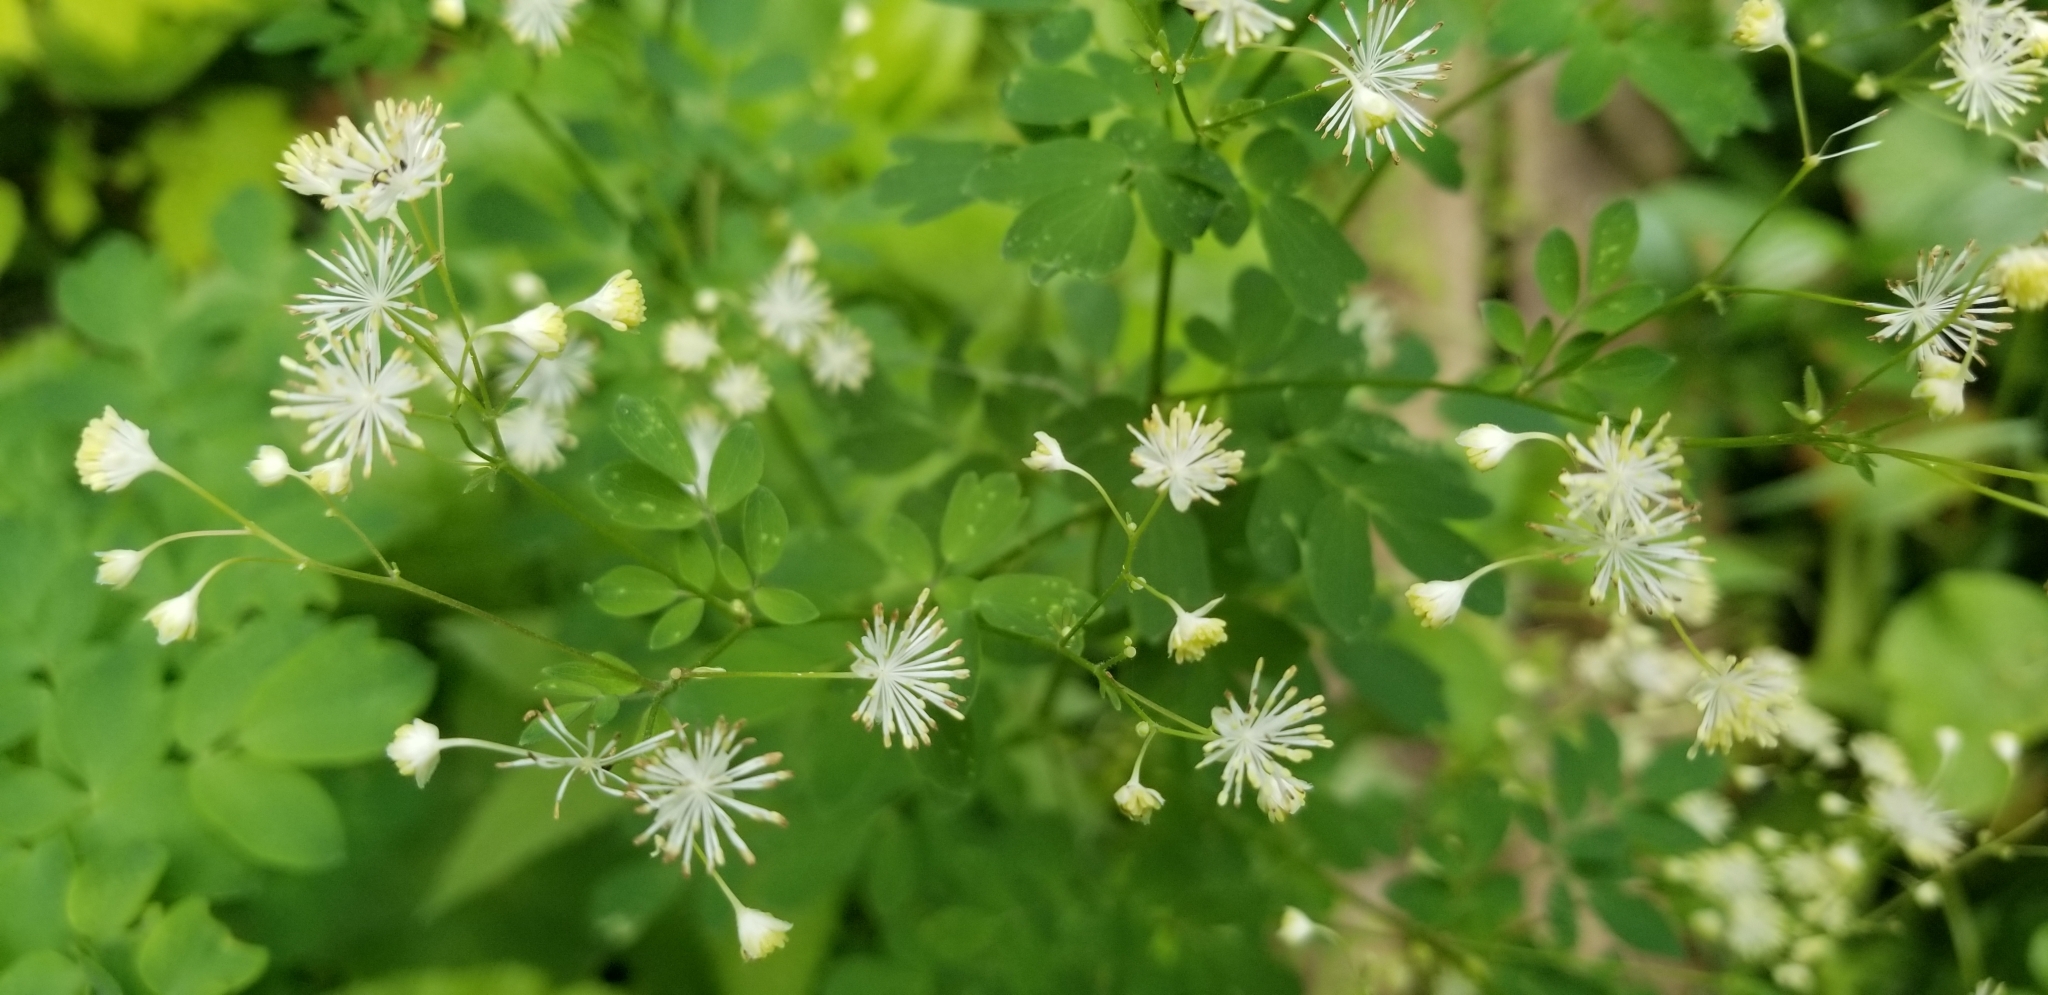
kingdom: Plantae
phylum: Tracheophyta
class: Magnoliopsida
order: Ranunculales
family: Ranunculaceae
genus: Thalictrum
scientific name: Thalictrum pubescens
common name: King-of-the-meadow
